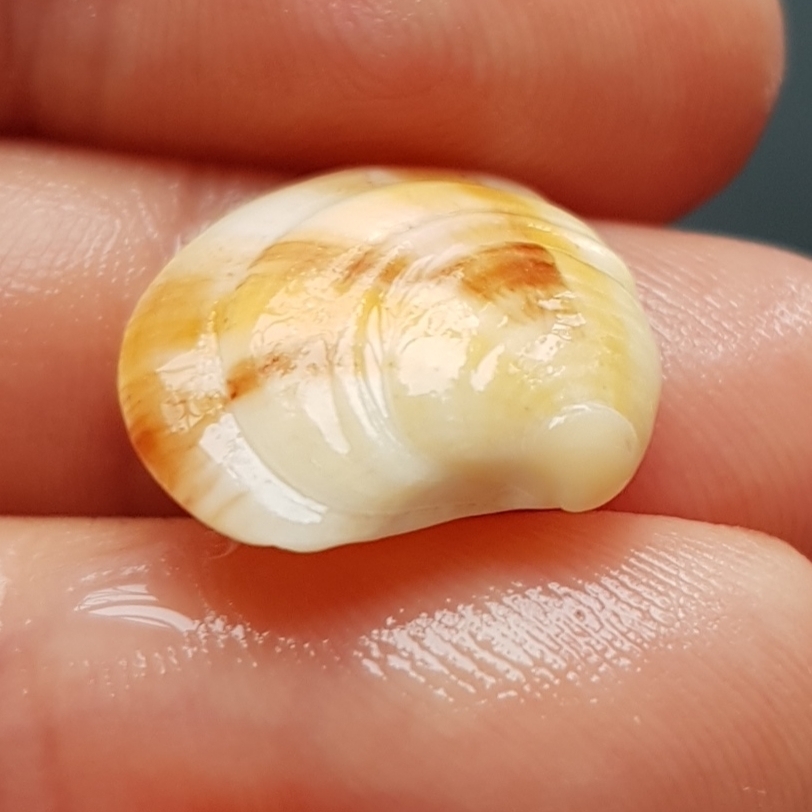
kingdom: Animalia
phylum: Mollusca
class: Bivalvia
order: Venerida
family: Veneridae
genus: Clausinella
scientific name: Clausinella fasciata
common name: Banded venus
